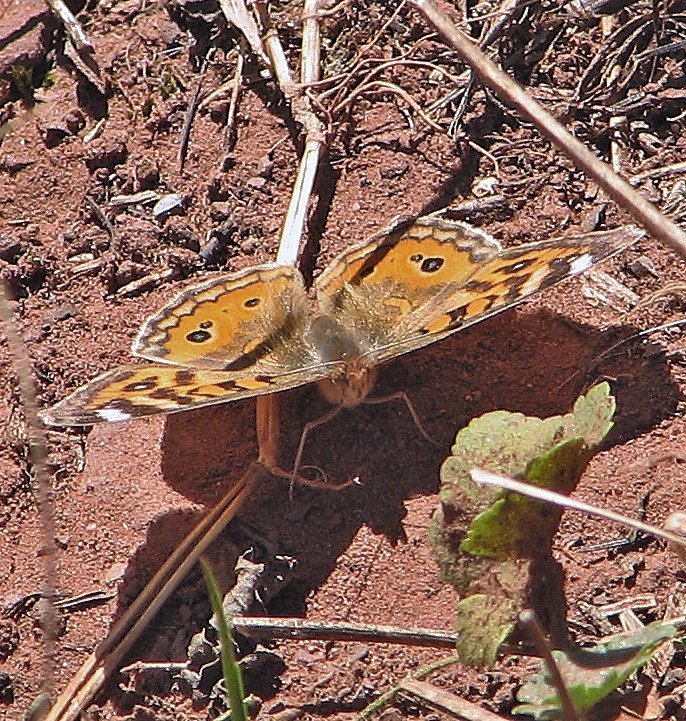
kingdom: Animalia
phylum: Arthropoda
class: Insecta
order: Lepidoptera
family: Nymphalidae
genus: Junonia
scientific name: Junonia vestina
